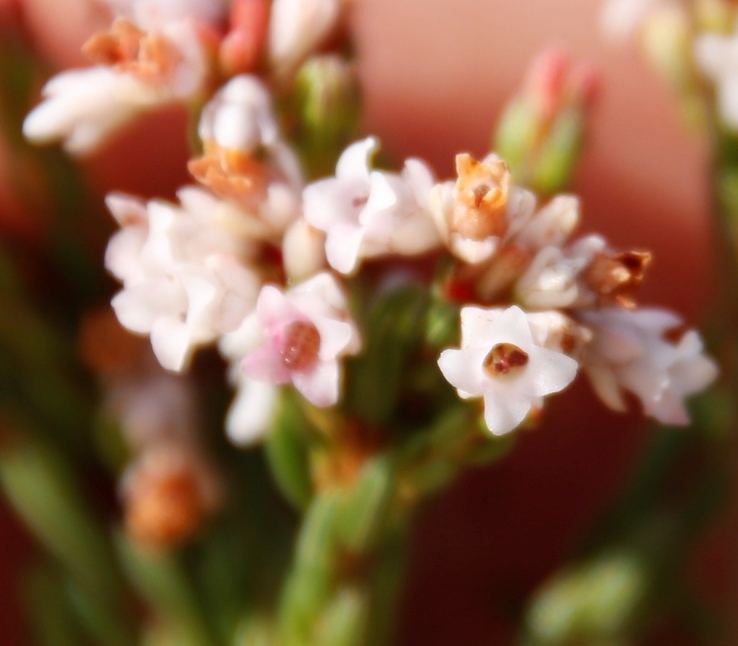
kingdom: Plantae
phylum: Tracheophyta
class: Magnoliopsida
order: Ericales
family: Ericaceae
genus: Erica
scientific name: Erica articularis
